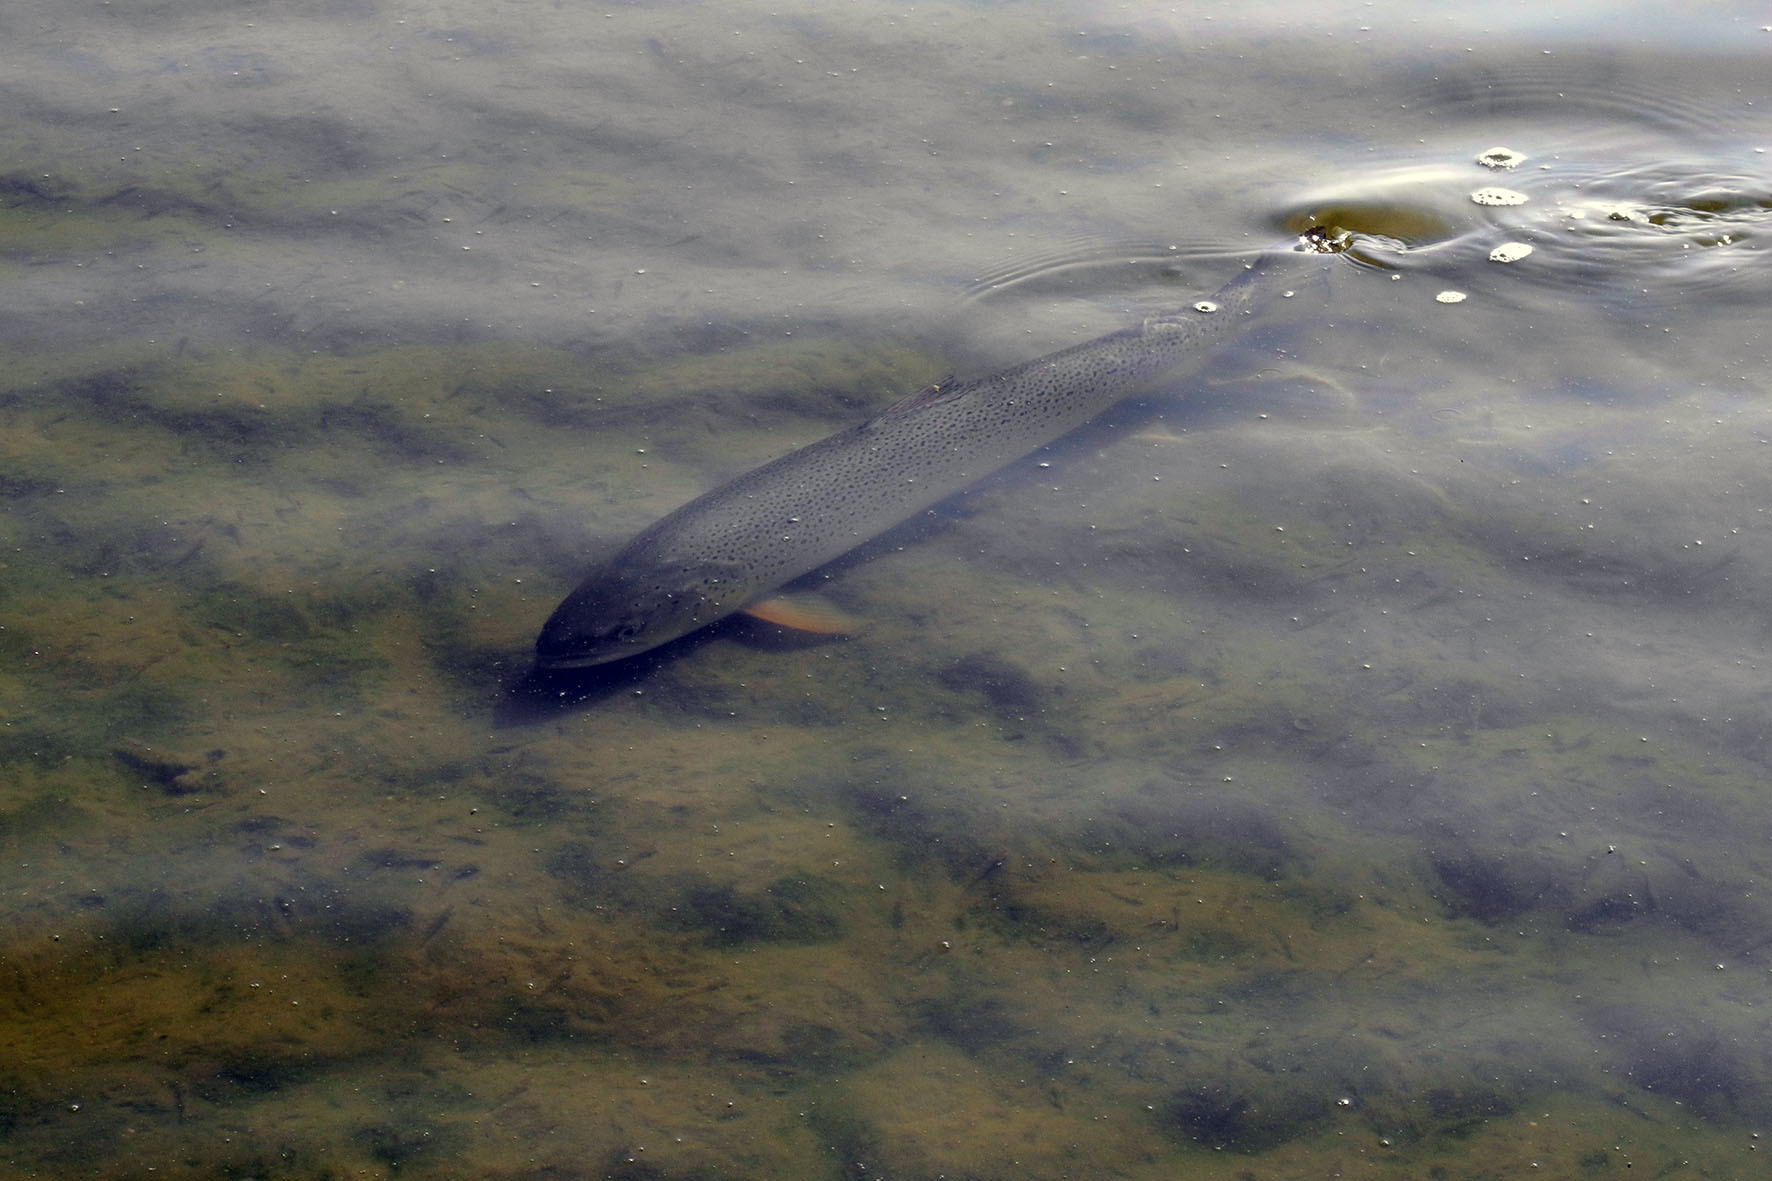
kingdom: Animalia
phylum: Chordata
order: Salmoniformes
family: Salmonidae
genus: Salmo
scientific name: Salmo trutta
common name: Brown trout
